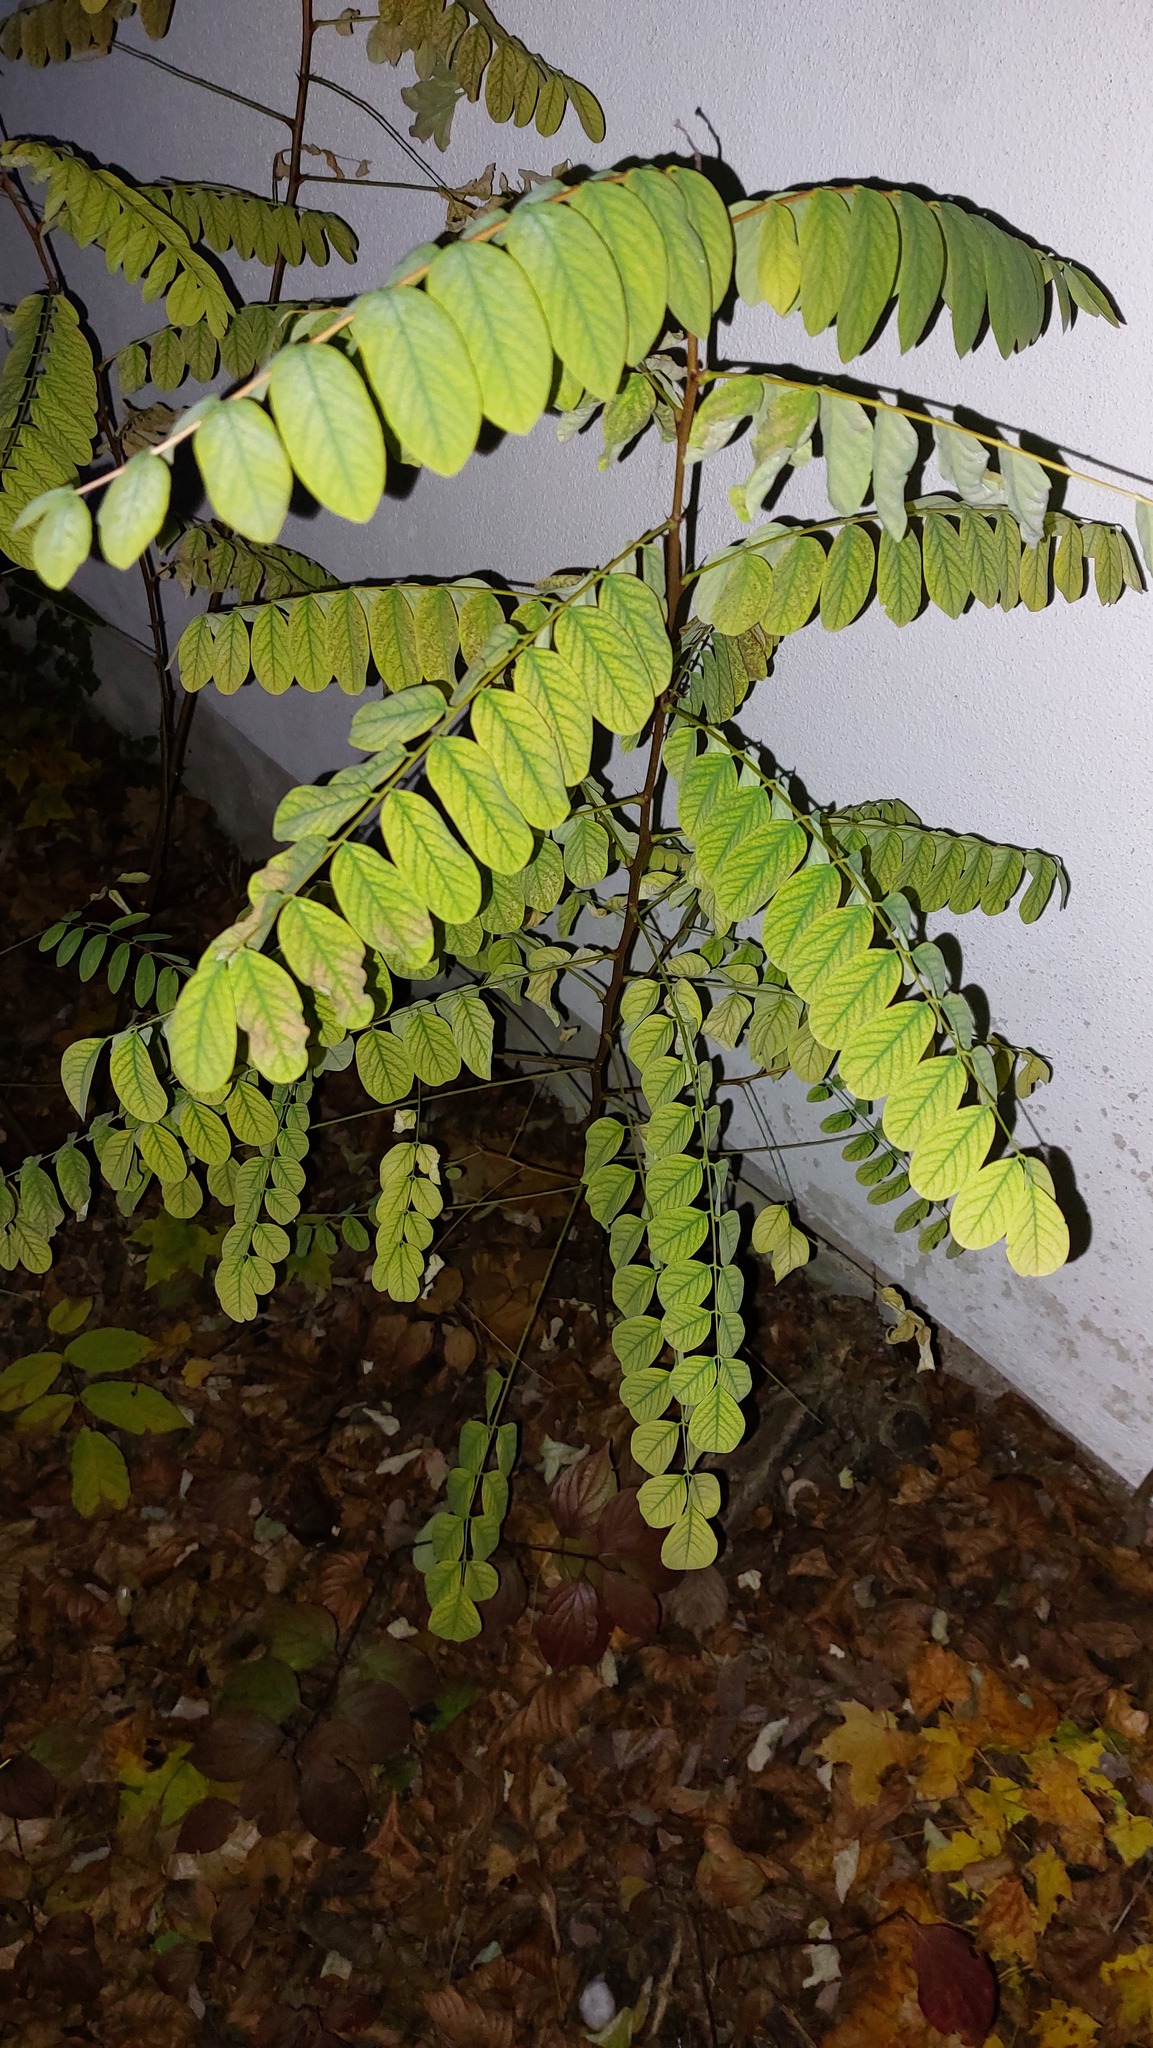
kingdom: Plantae
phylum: Tracheophyta
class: Magnoliopsida
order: Fabales
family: Fabaceae
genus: Robinia
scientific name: Robinia pseudoacacia
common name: Black locust
